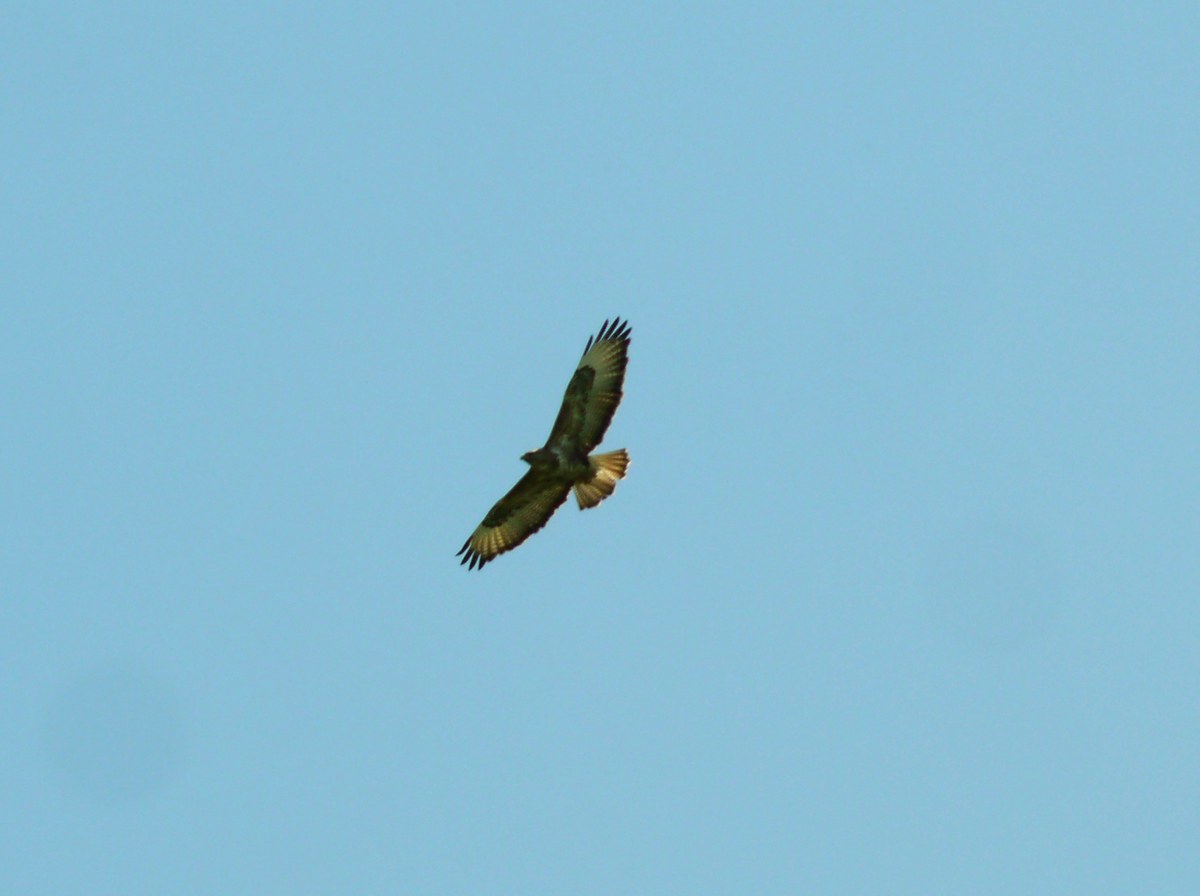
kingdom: Animalia
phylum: Chordata
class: Aves
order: Accipitriformes
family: Accipitridae
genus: Buteo
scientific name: Buteo buteo
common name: Common buzzard
